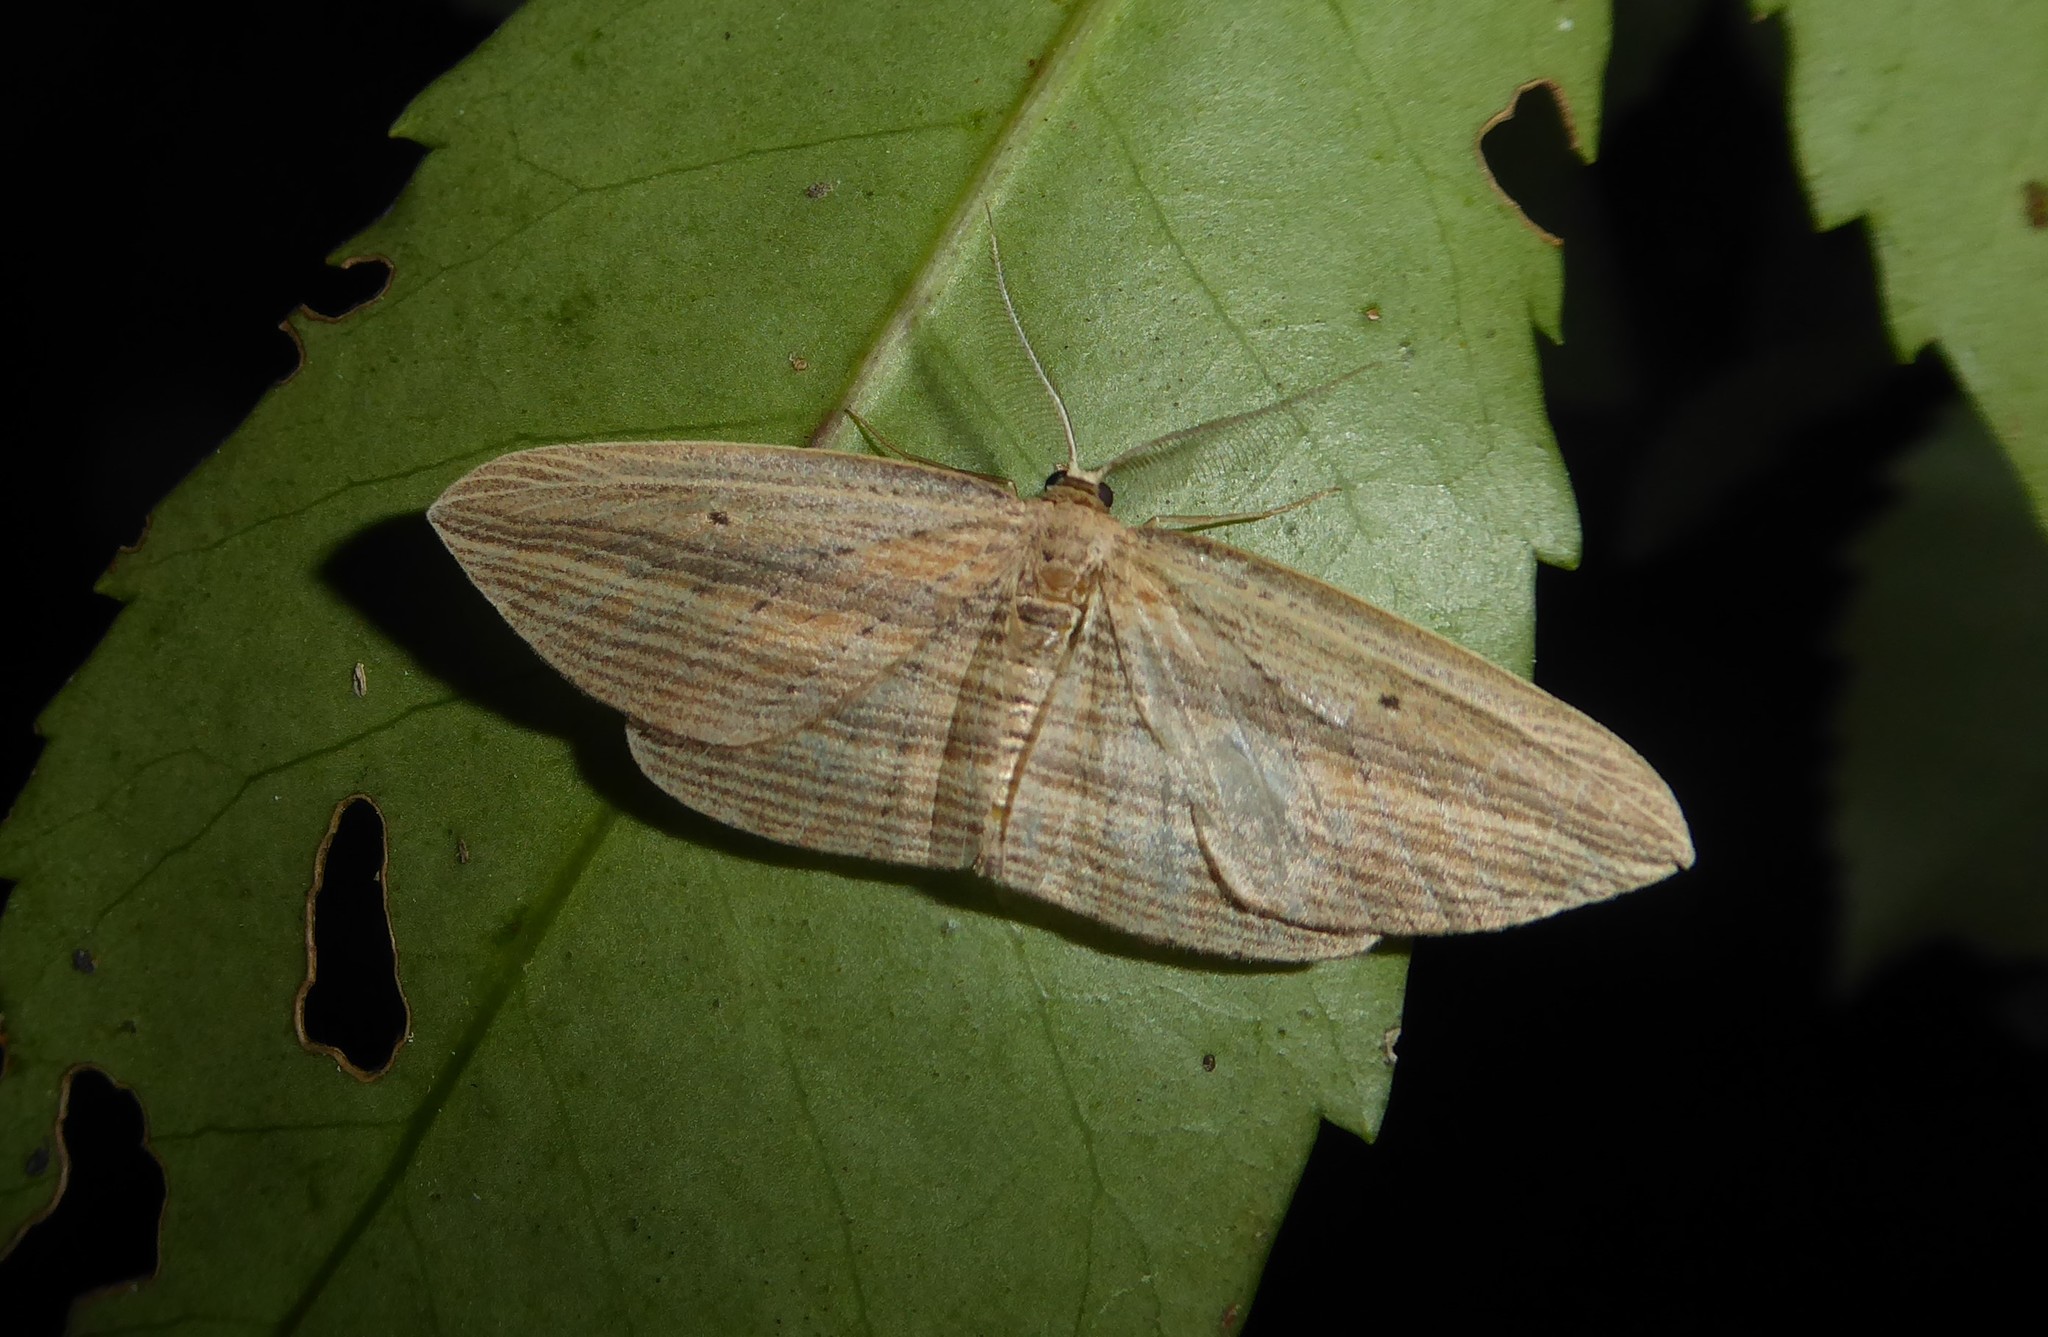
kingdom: Animalia
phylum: Arthropoda
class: Insecta
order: Lepidoptera
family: Geometridae
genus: Epiphryne
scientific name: Epiphryne verriculata
